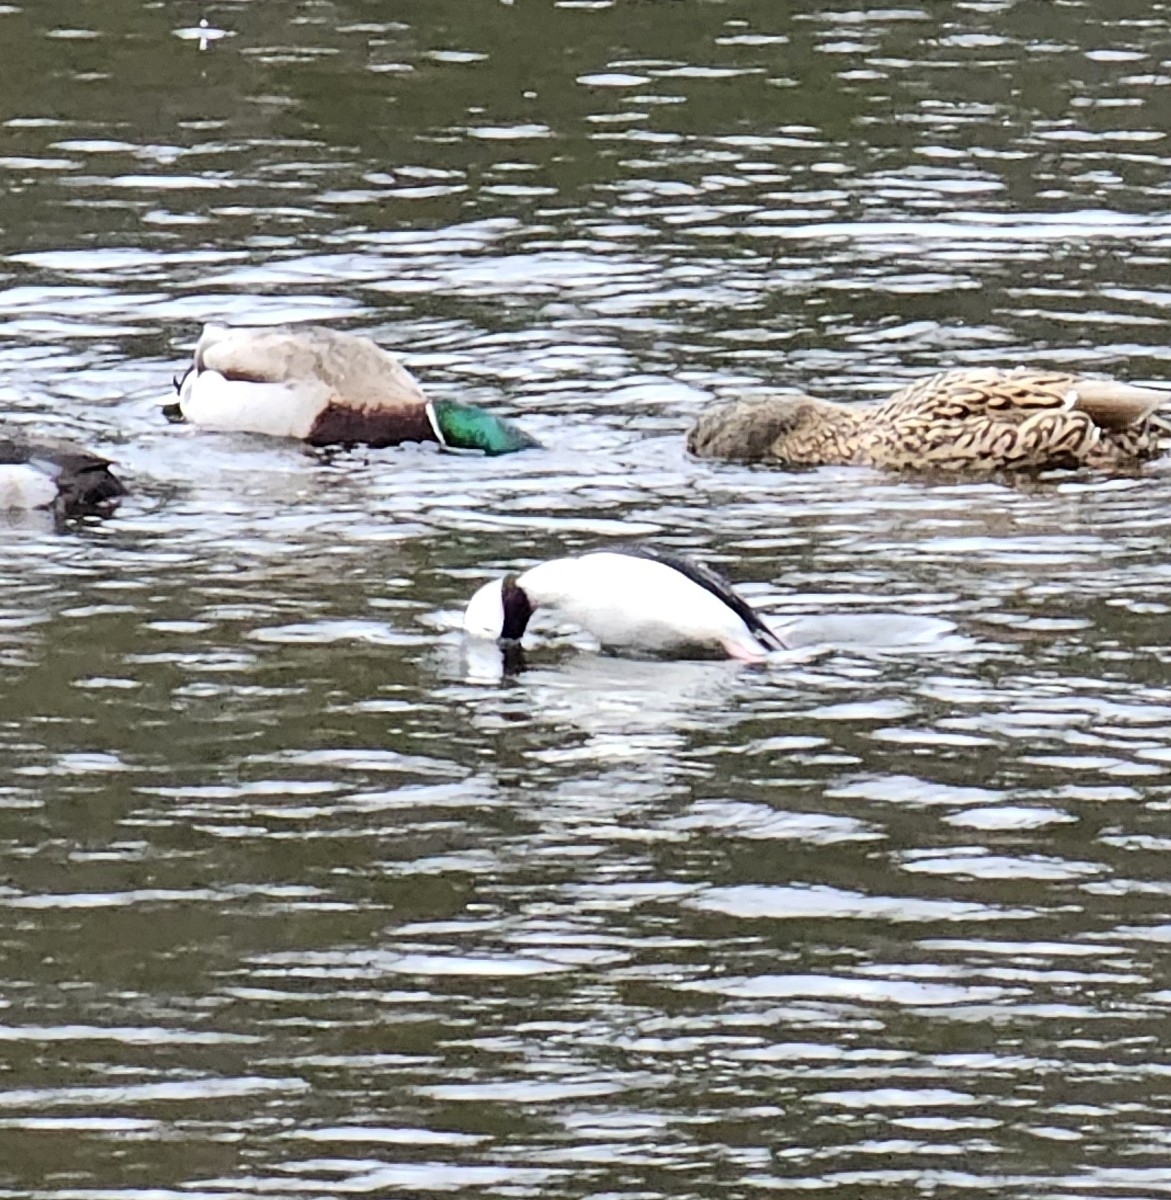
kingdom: Animalia
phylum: Chordata
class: Aves
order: Anseriformes
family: Anatidae
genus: Bucephala
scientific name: Bucephala albeola
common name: Bufflehead
